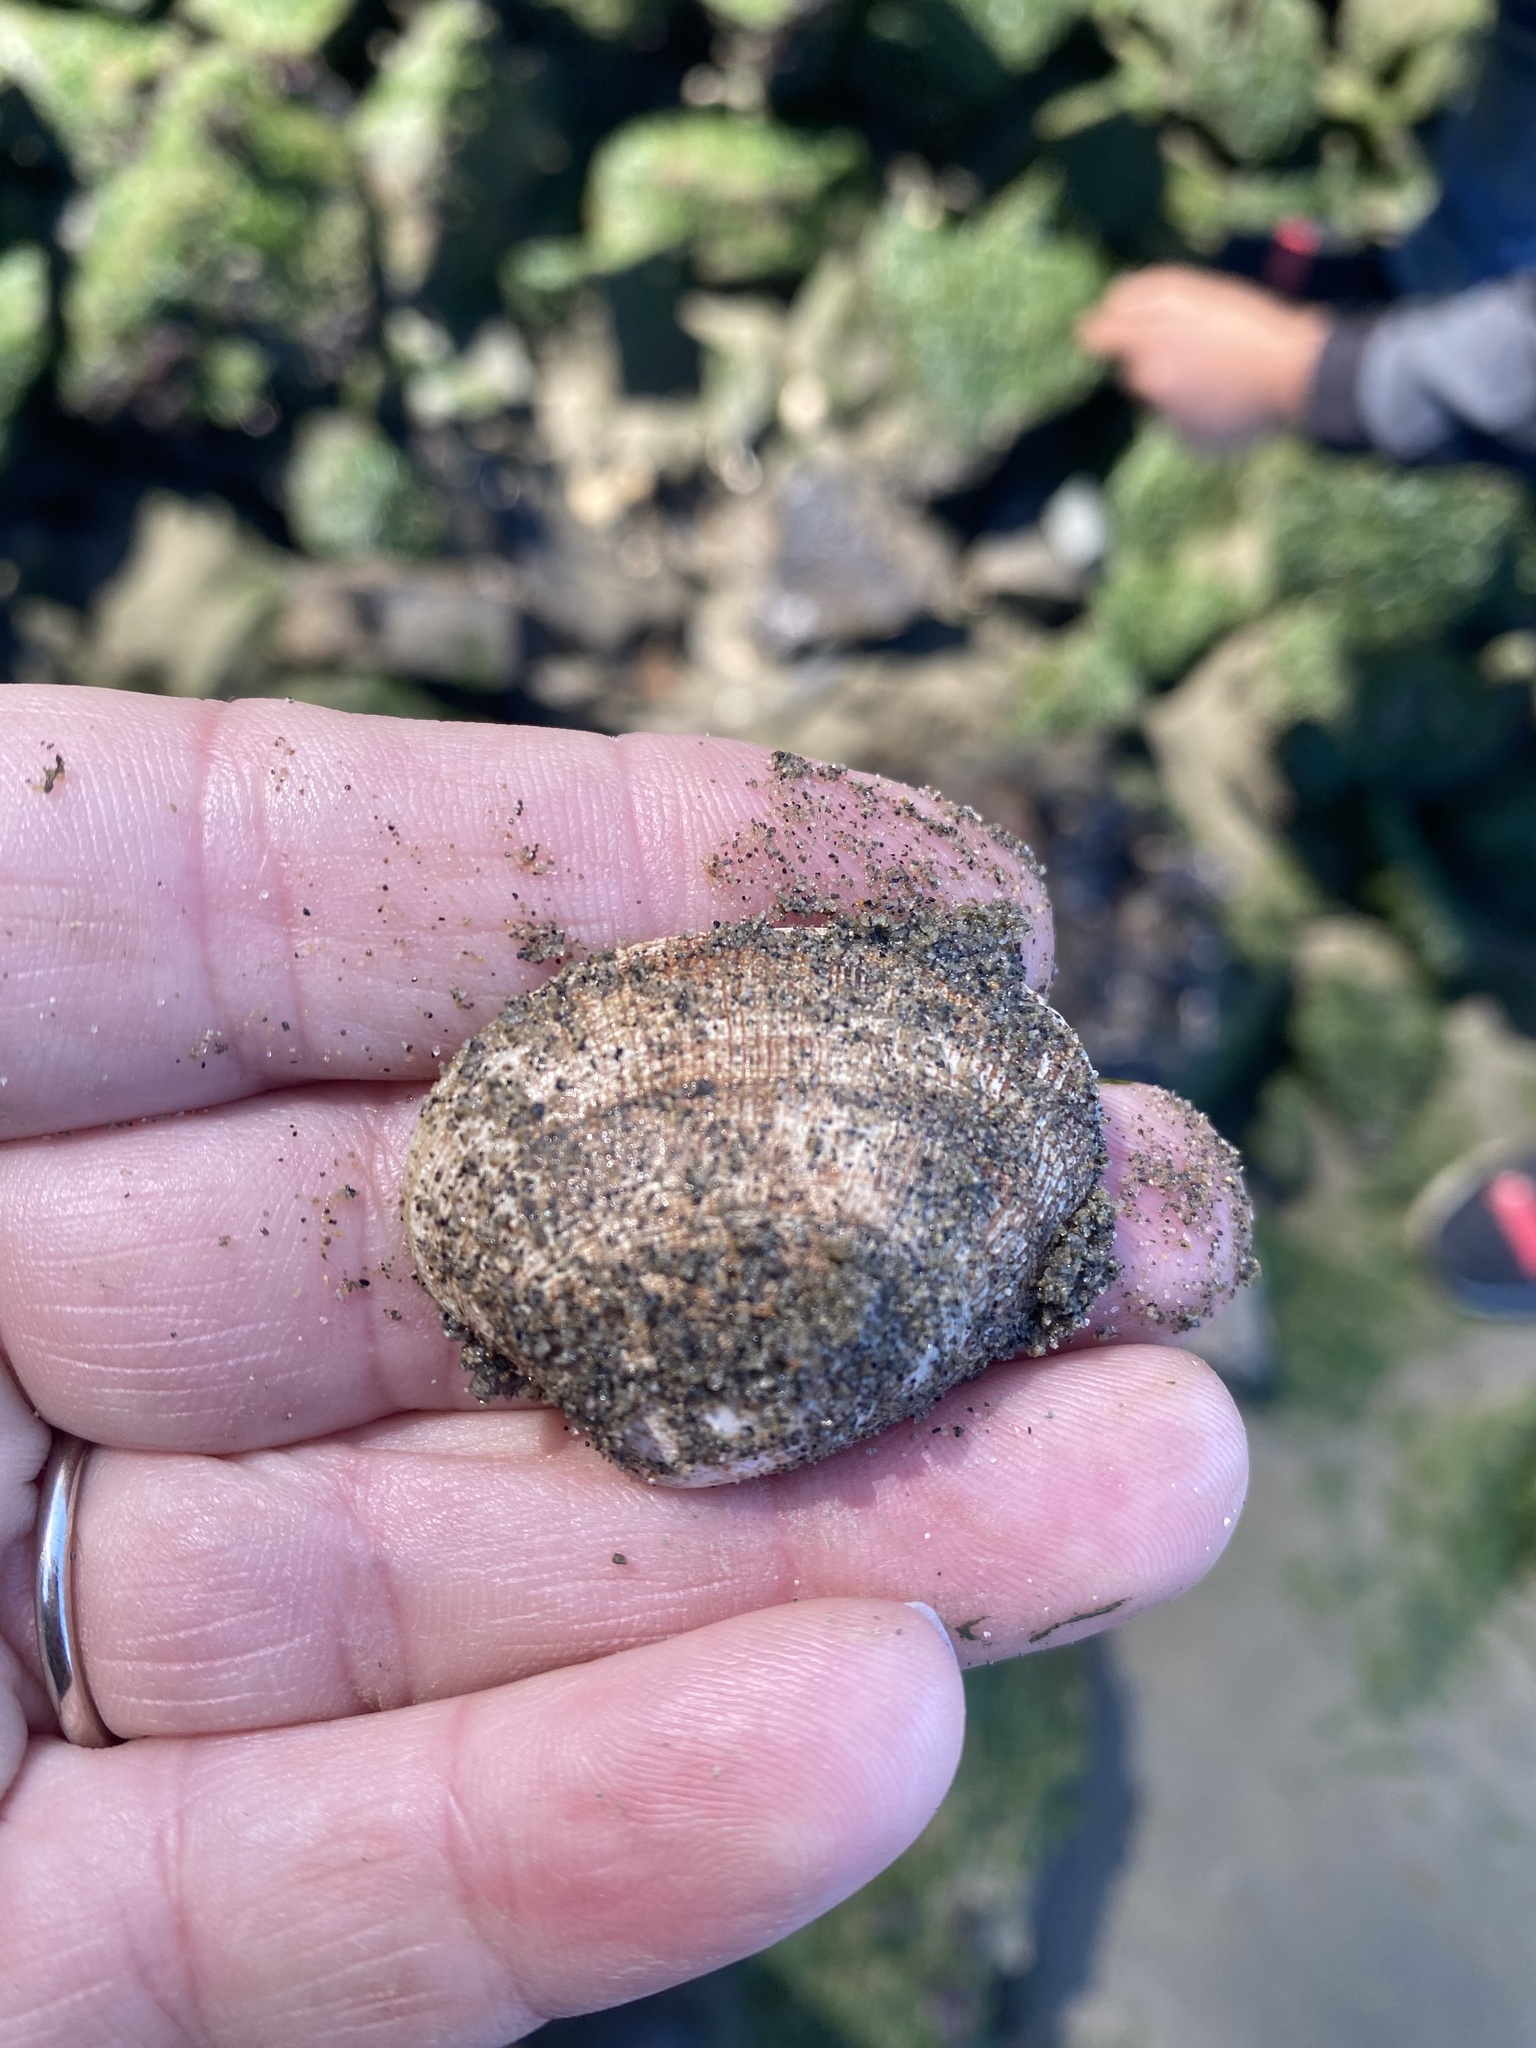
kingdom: Animalia
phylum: Mollusca
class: Bivalvia
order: Venerida
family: Veneridae
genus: Ruditapes
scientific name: Ruditapes philippinarum
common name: Manila clam
